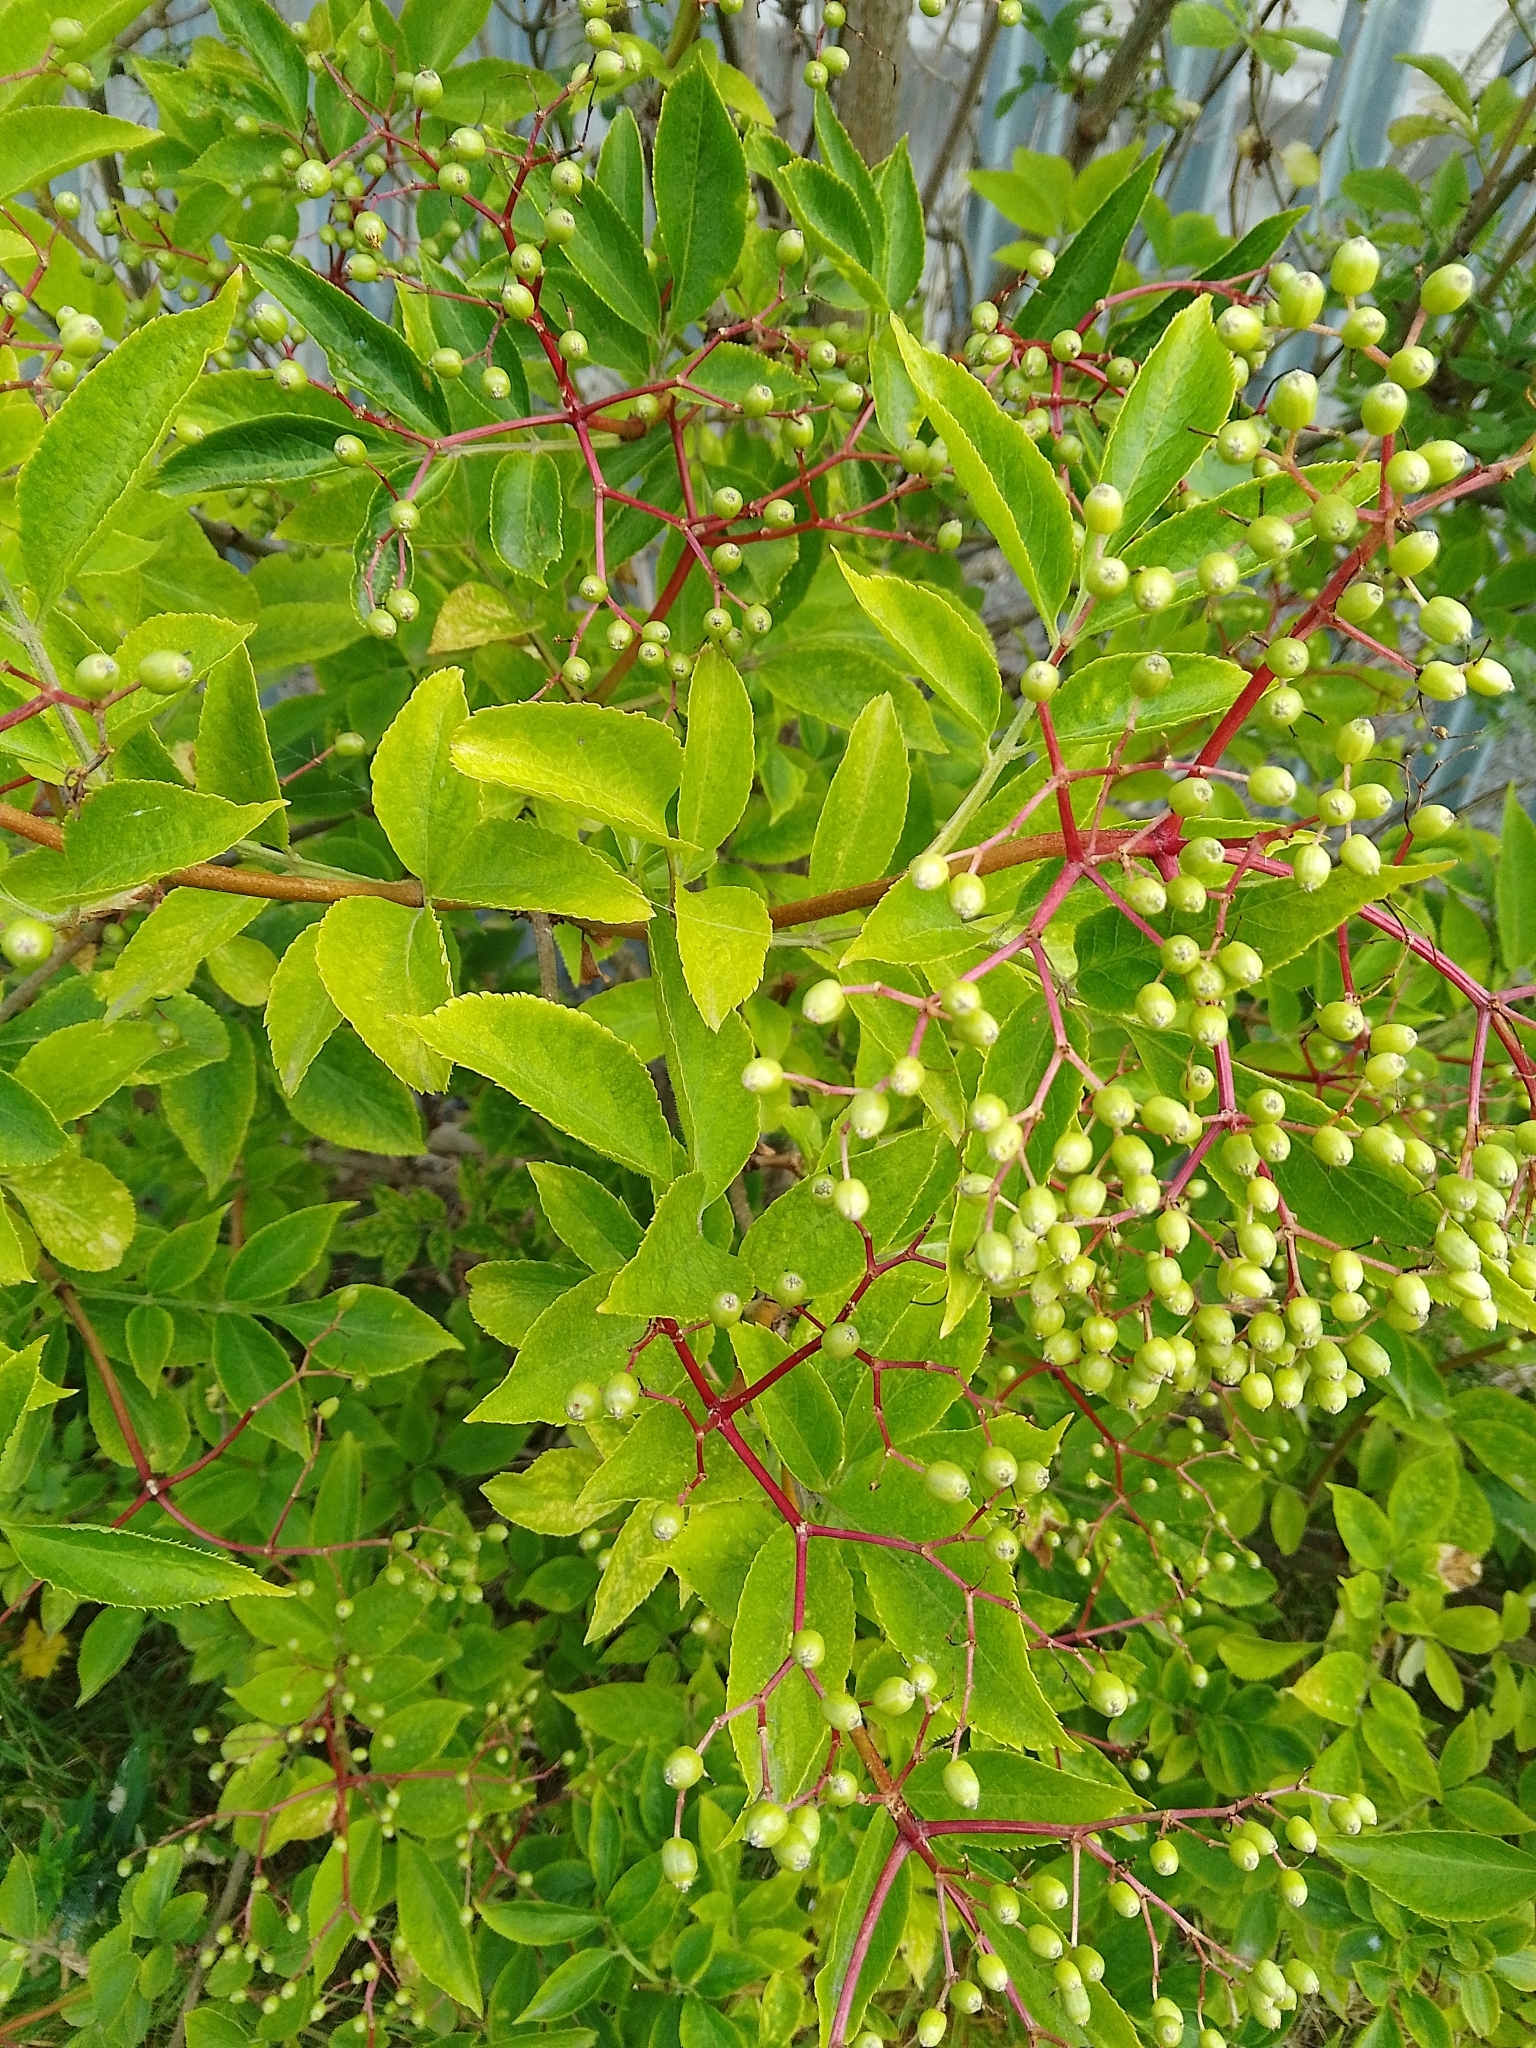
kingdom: Plantae
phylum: Tracheophyta
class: Magnoliopsida
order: Dipsacales
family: Viburnaceae
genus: Sambucus
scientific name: Sambucus nigra
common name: Elder
